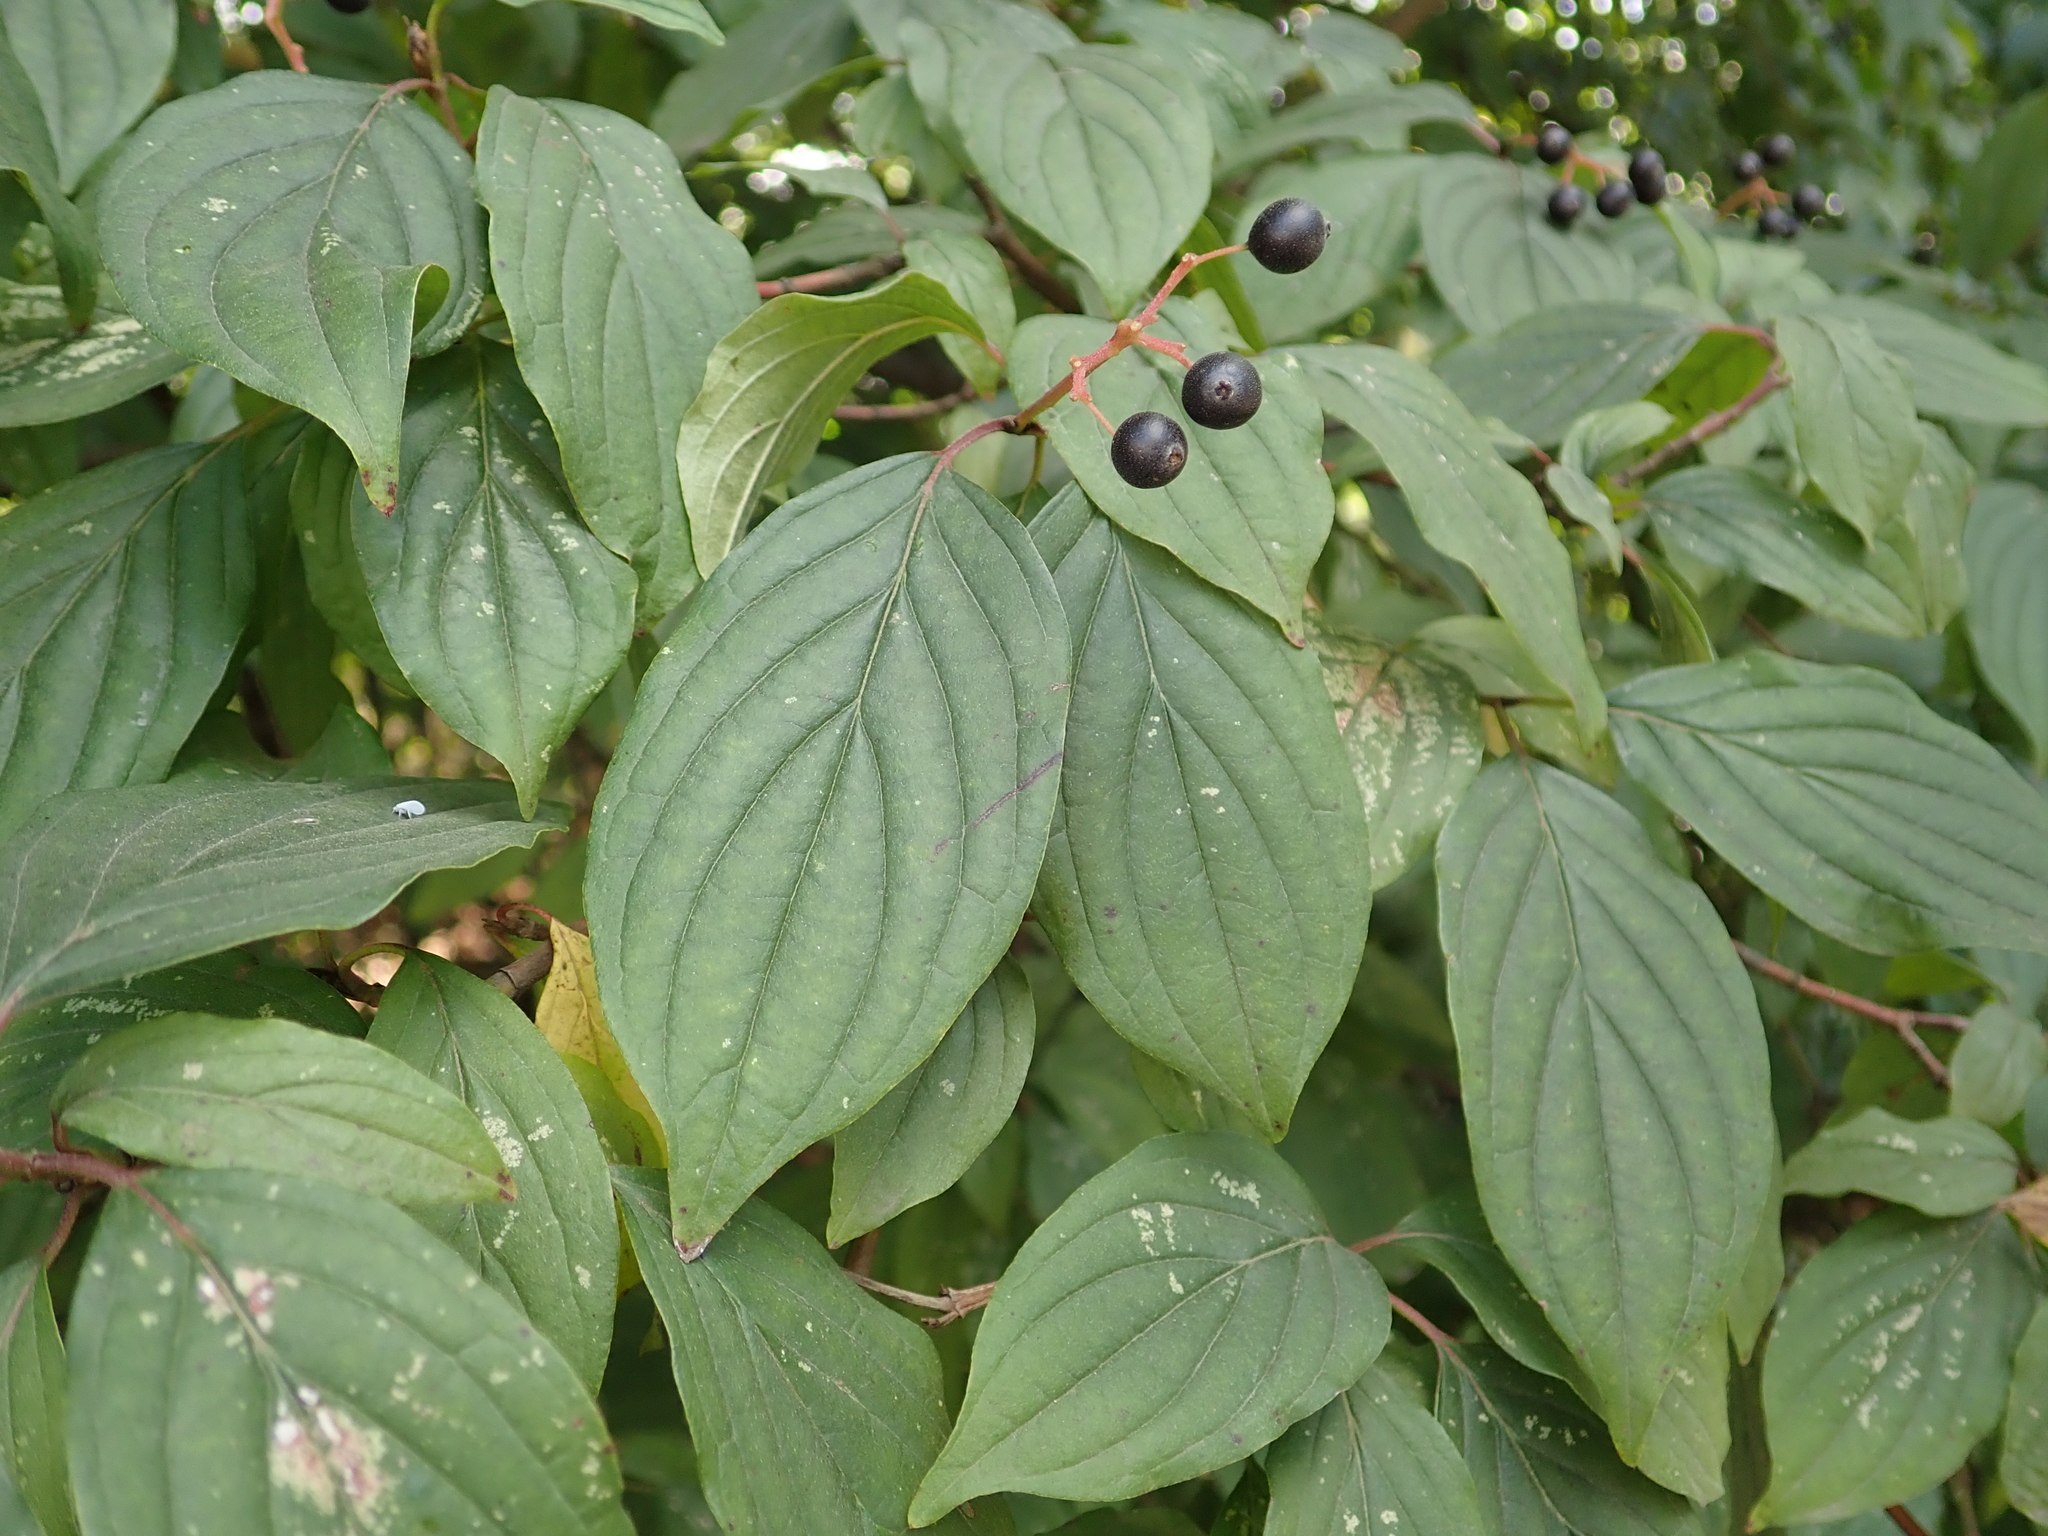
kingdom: Plantae
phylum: Tracheophyta
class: Magnoliopsida
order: Cornales
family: Cornaceae
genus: Cornus
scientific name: Cornus sanguinea
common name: Dogwood
